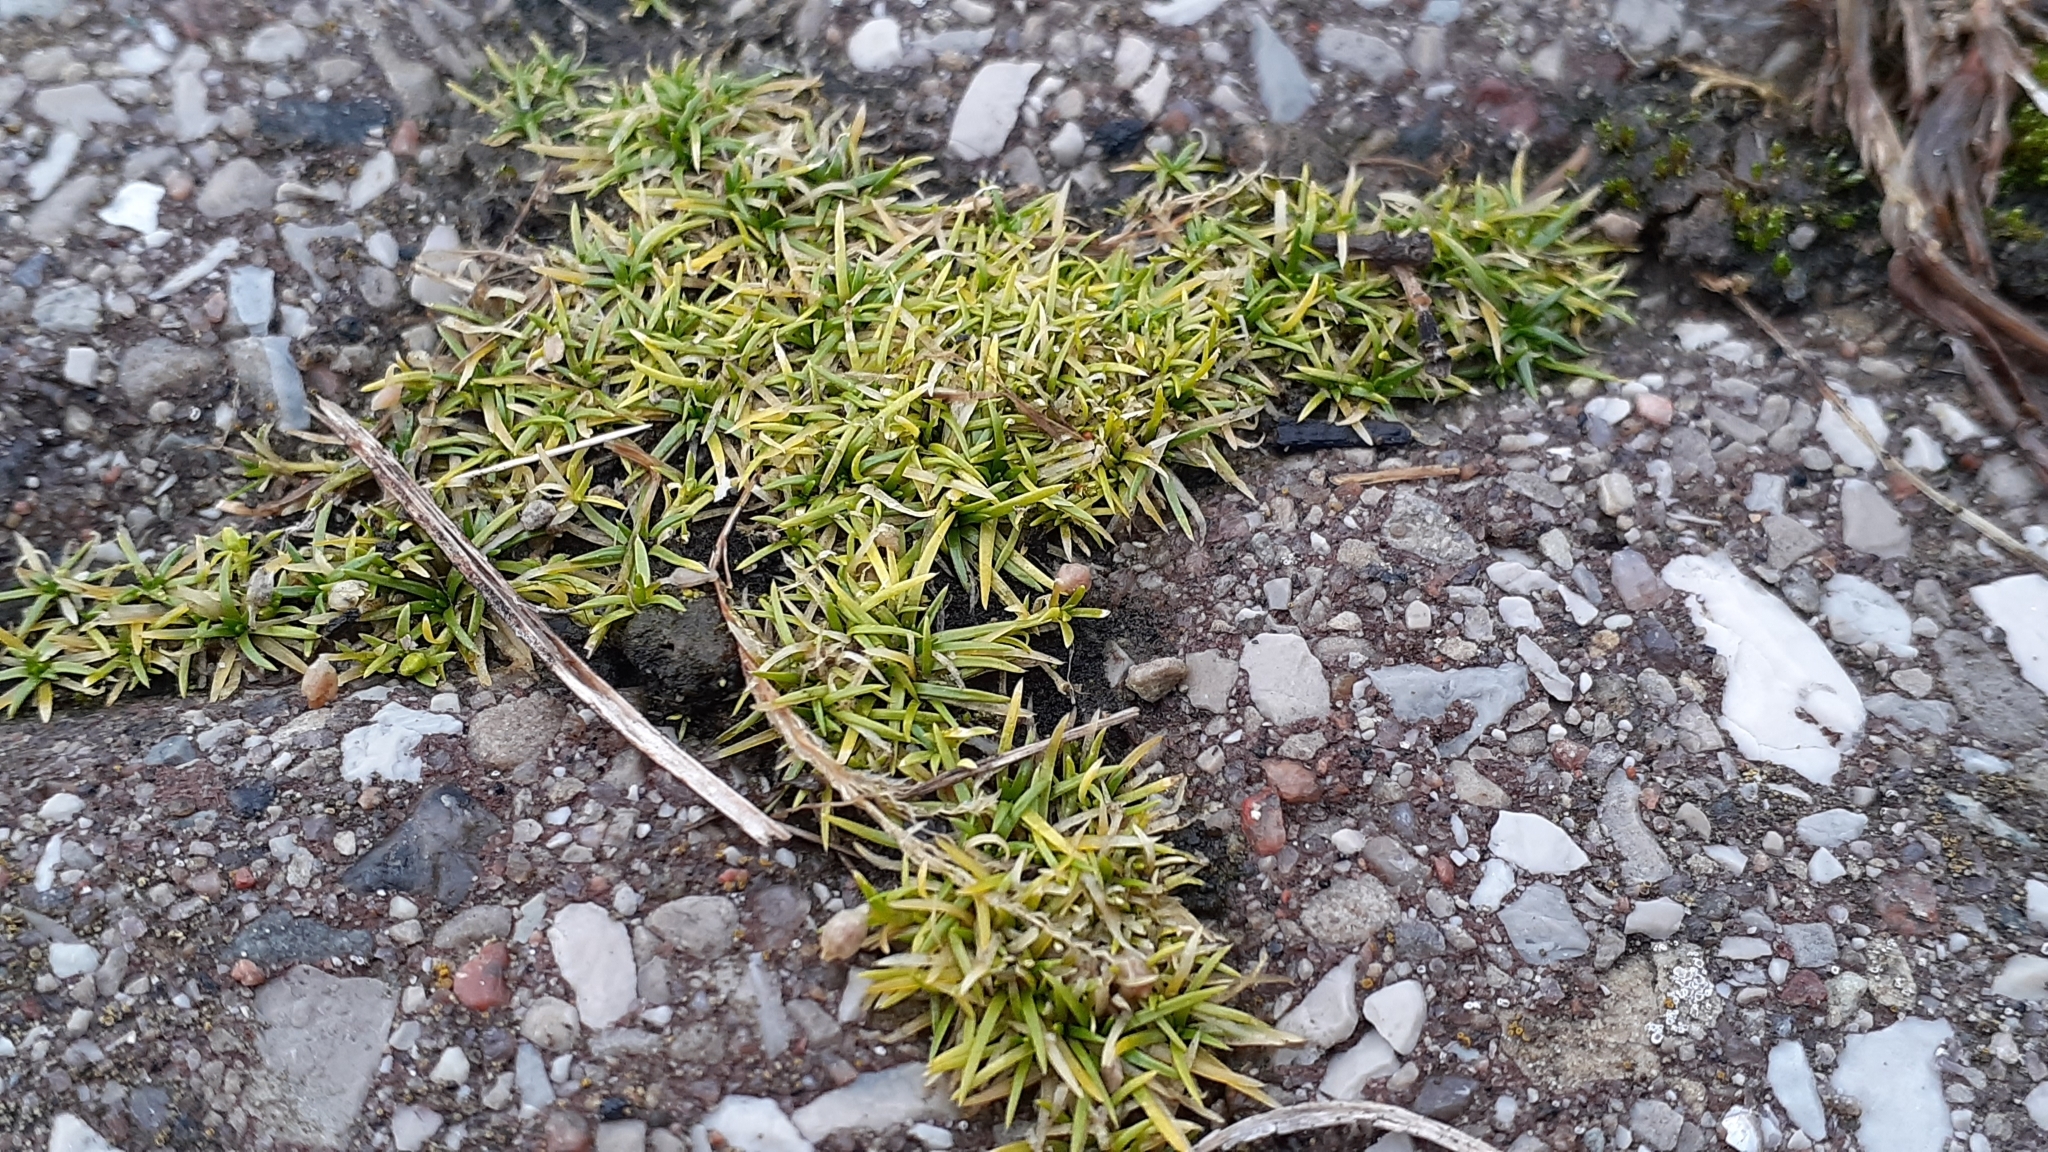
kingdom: Plantae
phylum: Tracheophyta
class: Magnoliopsida
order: Caryophyllales
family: Caryophyllaceae
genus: Sagina
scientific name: Sagina procumbens
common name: Procumbent pearlwort
